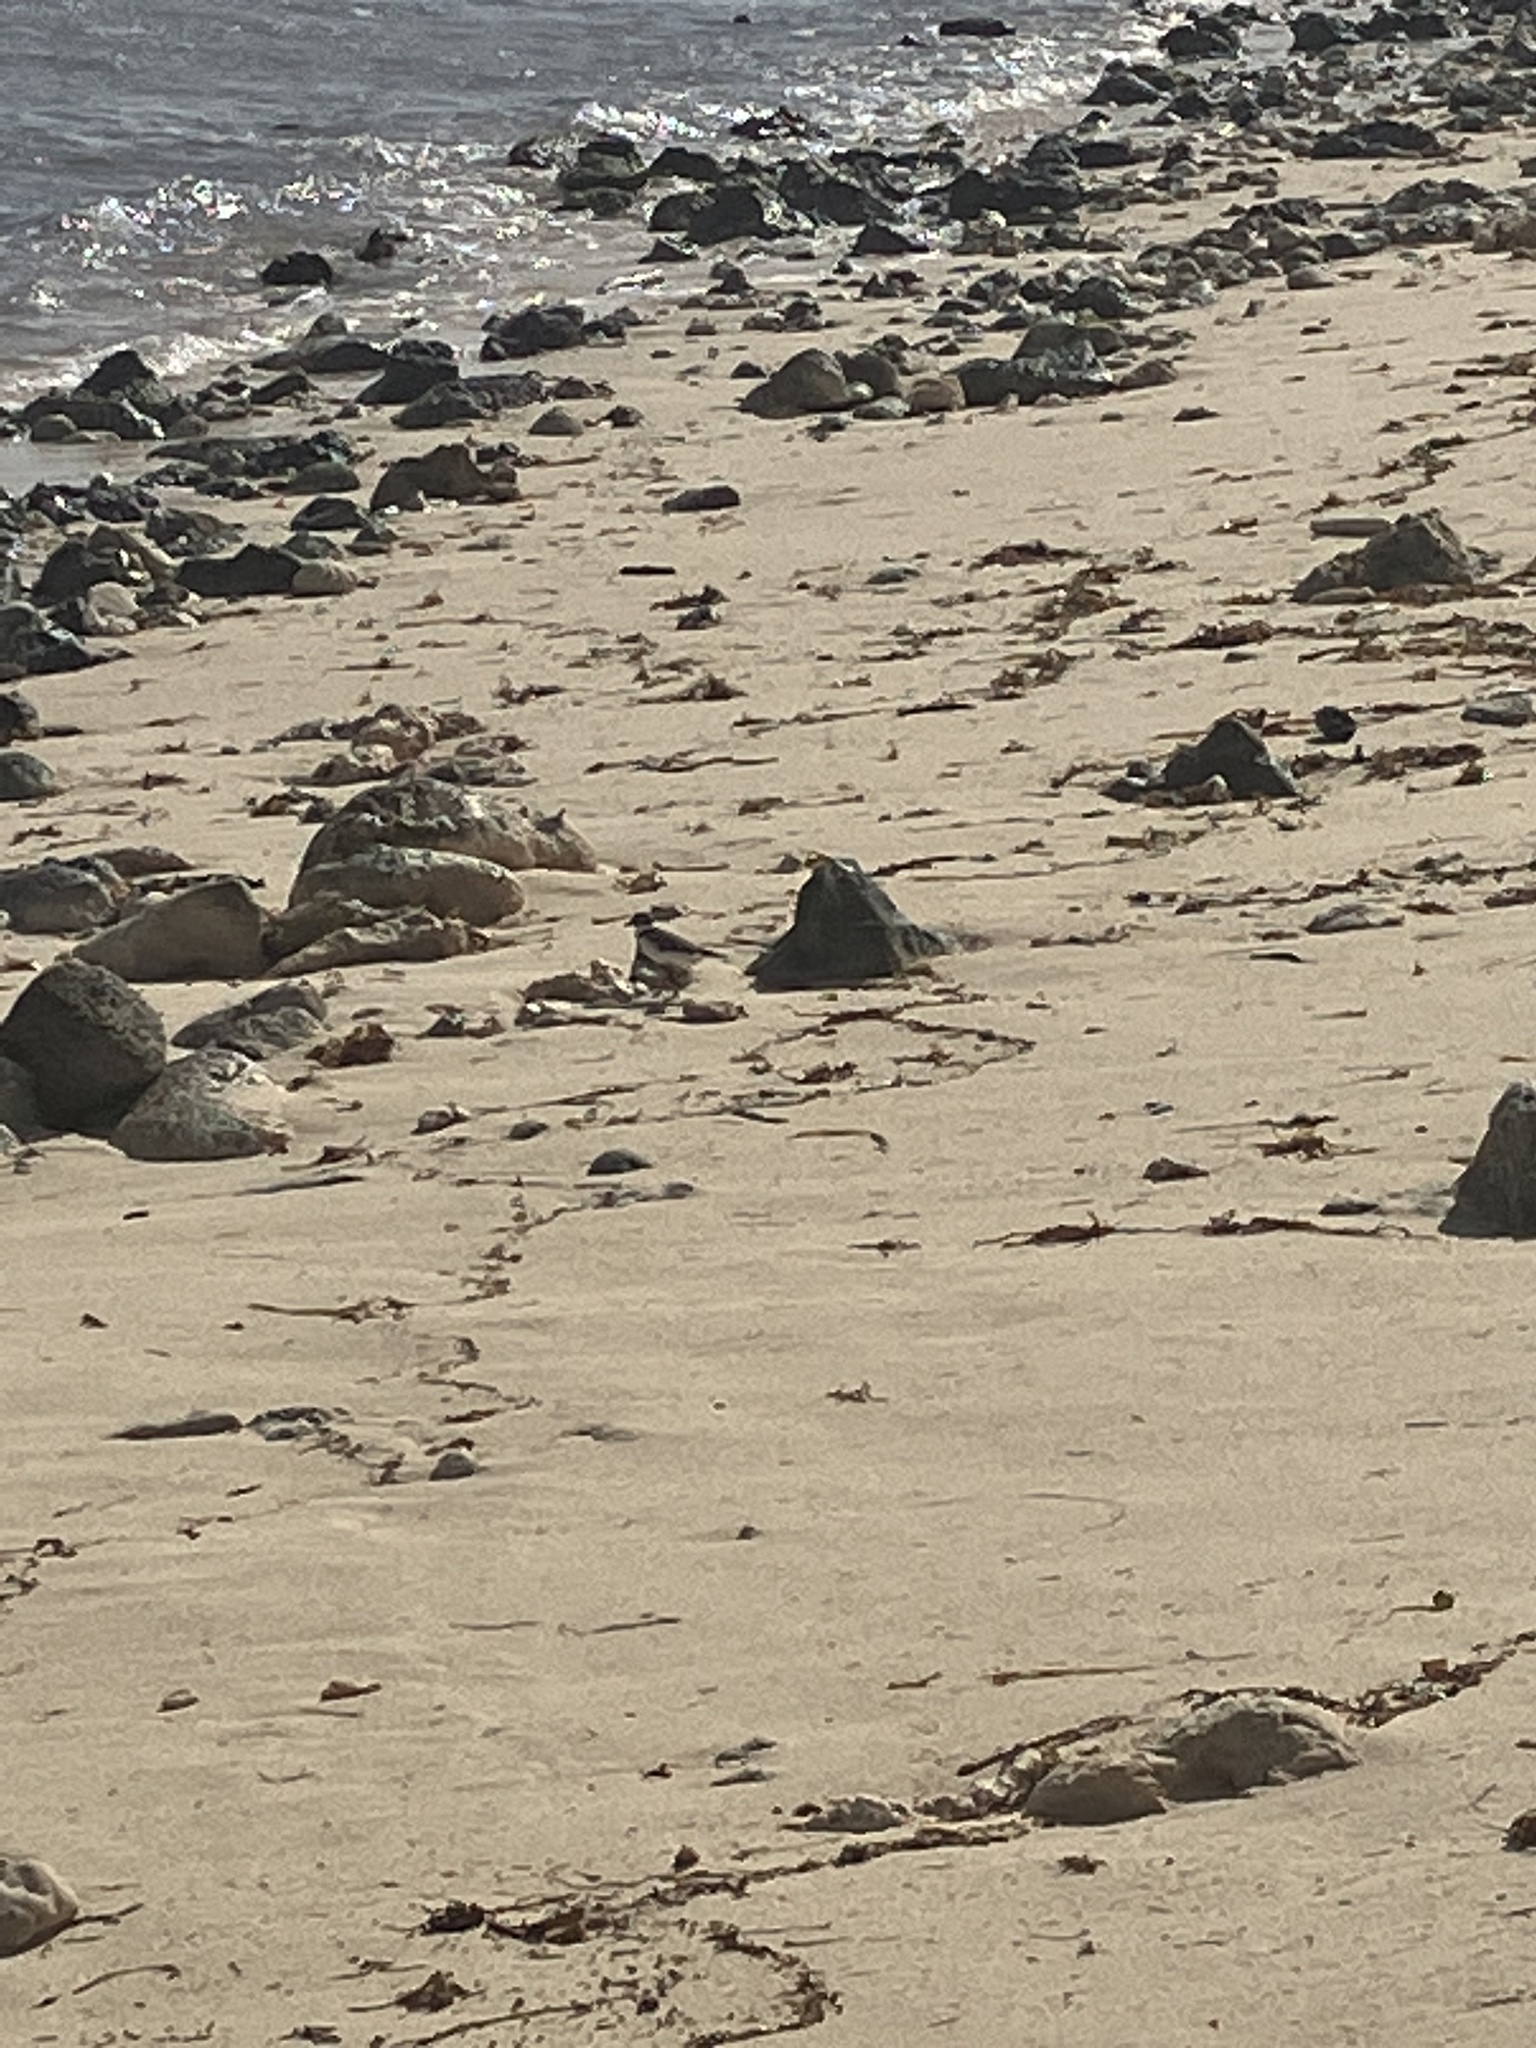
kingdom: Animalia
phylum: Chordata
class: Aves
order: Charadriiformes
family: Charadriidae
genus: Charadrius
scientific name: Charadrius semipalmatus
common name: Semipalmated plover
